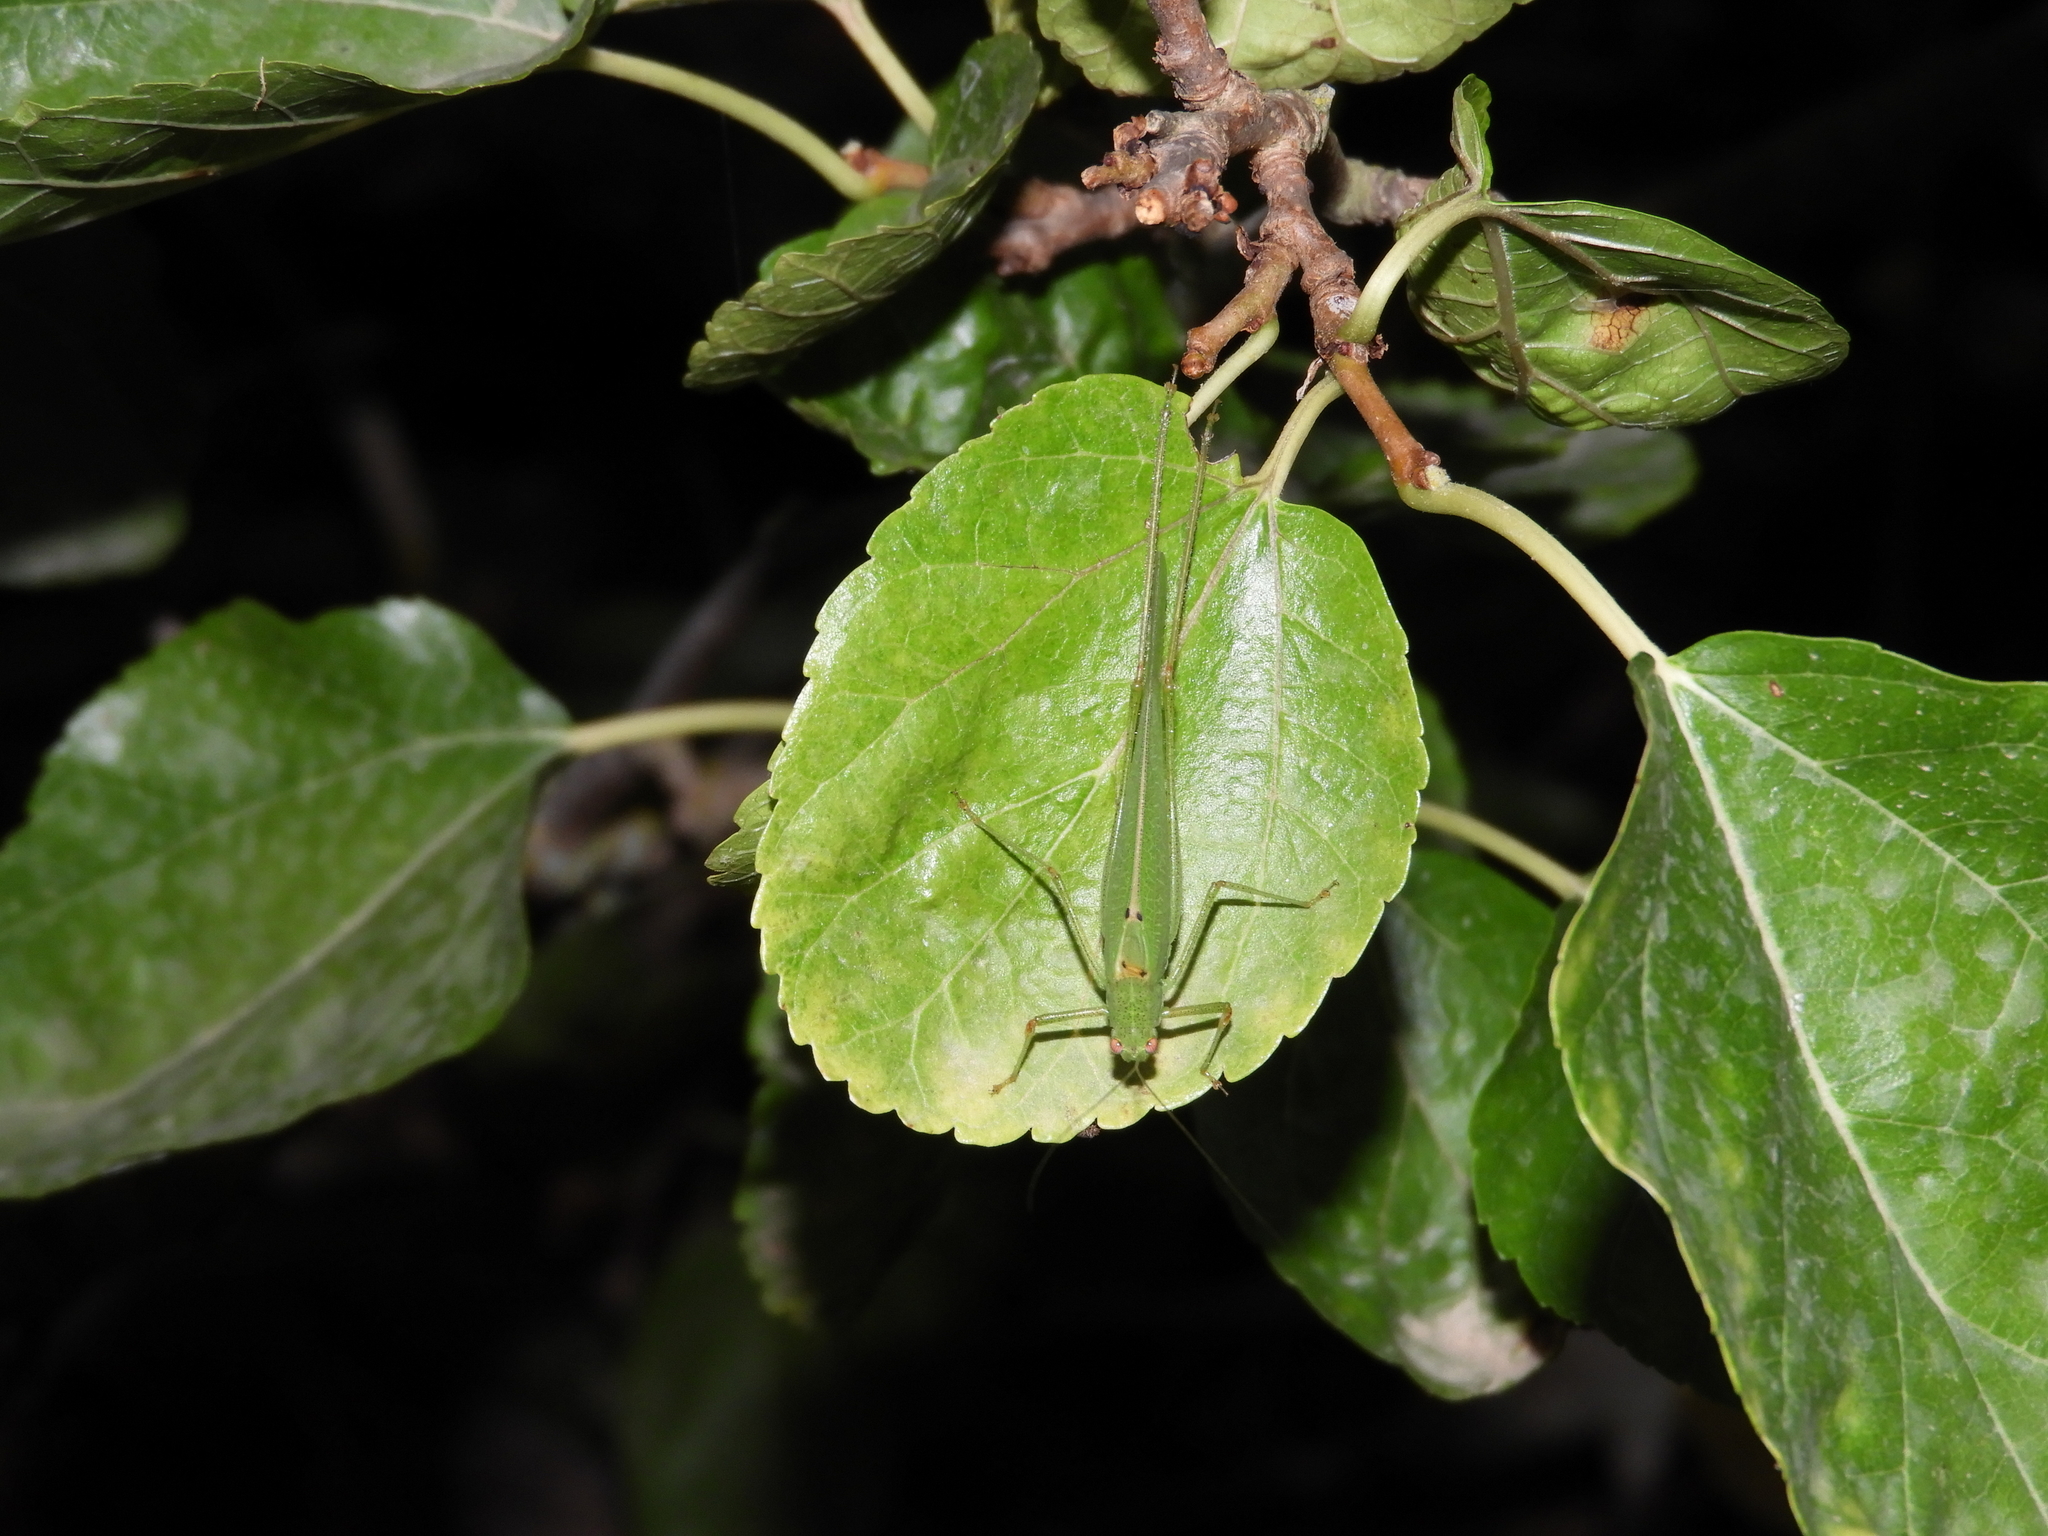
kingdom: Animalia
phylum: Arthropoda
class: Insecta
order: Orthoptera
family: Tettigoniidae
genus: Phaneroptera
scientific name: Phaneroptera nana
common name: Southern sickle bush-cricket
